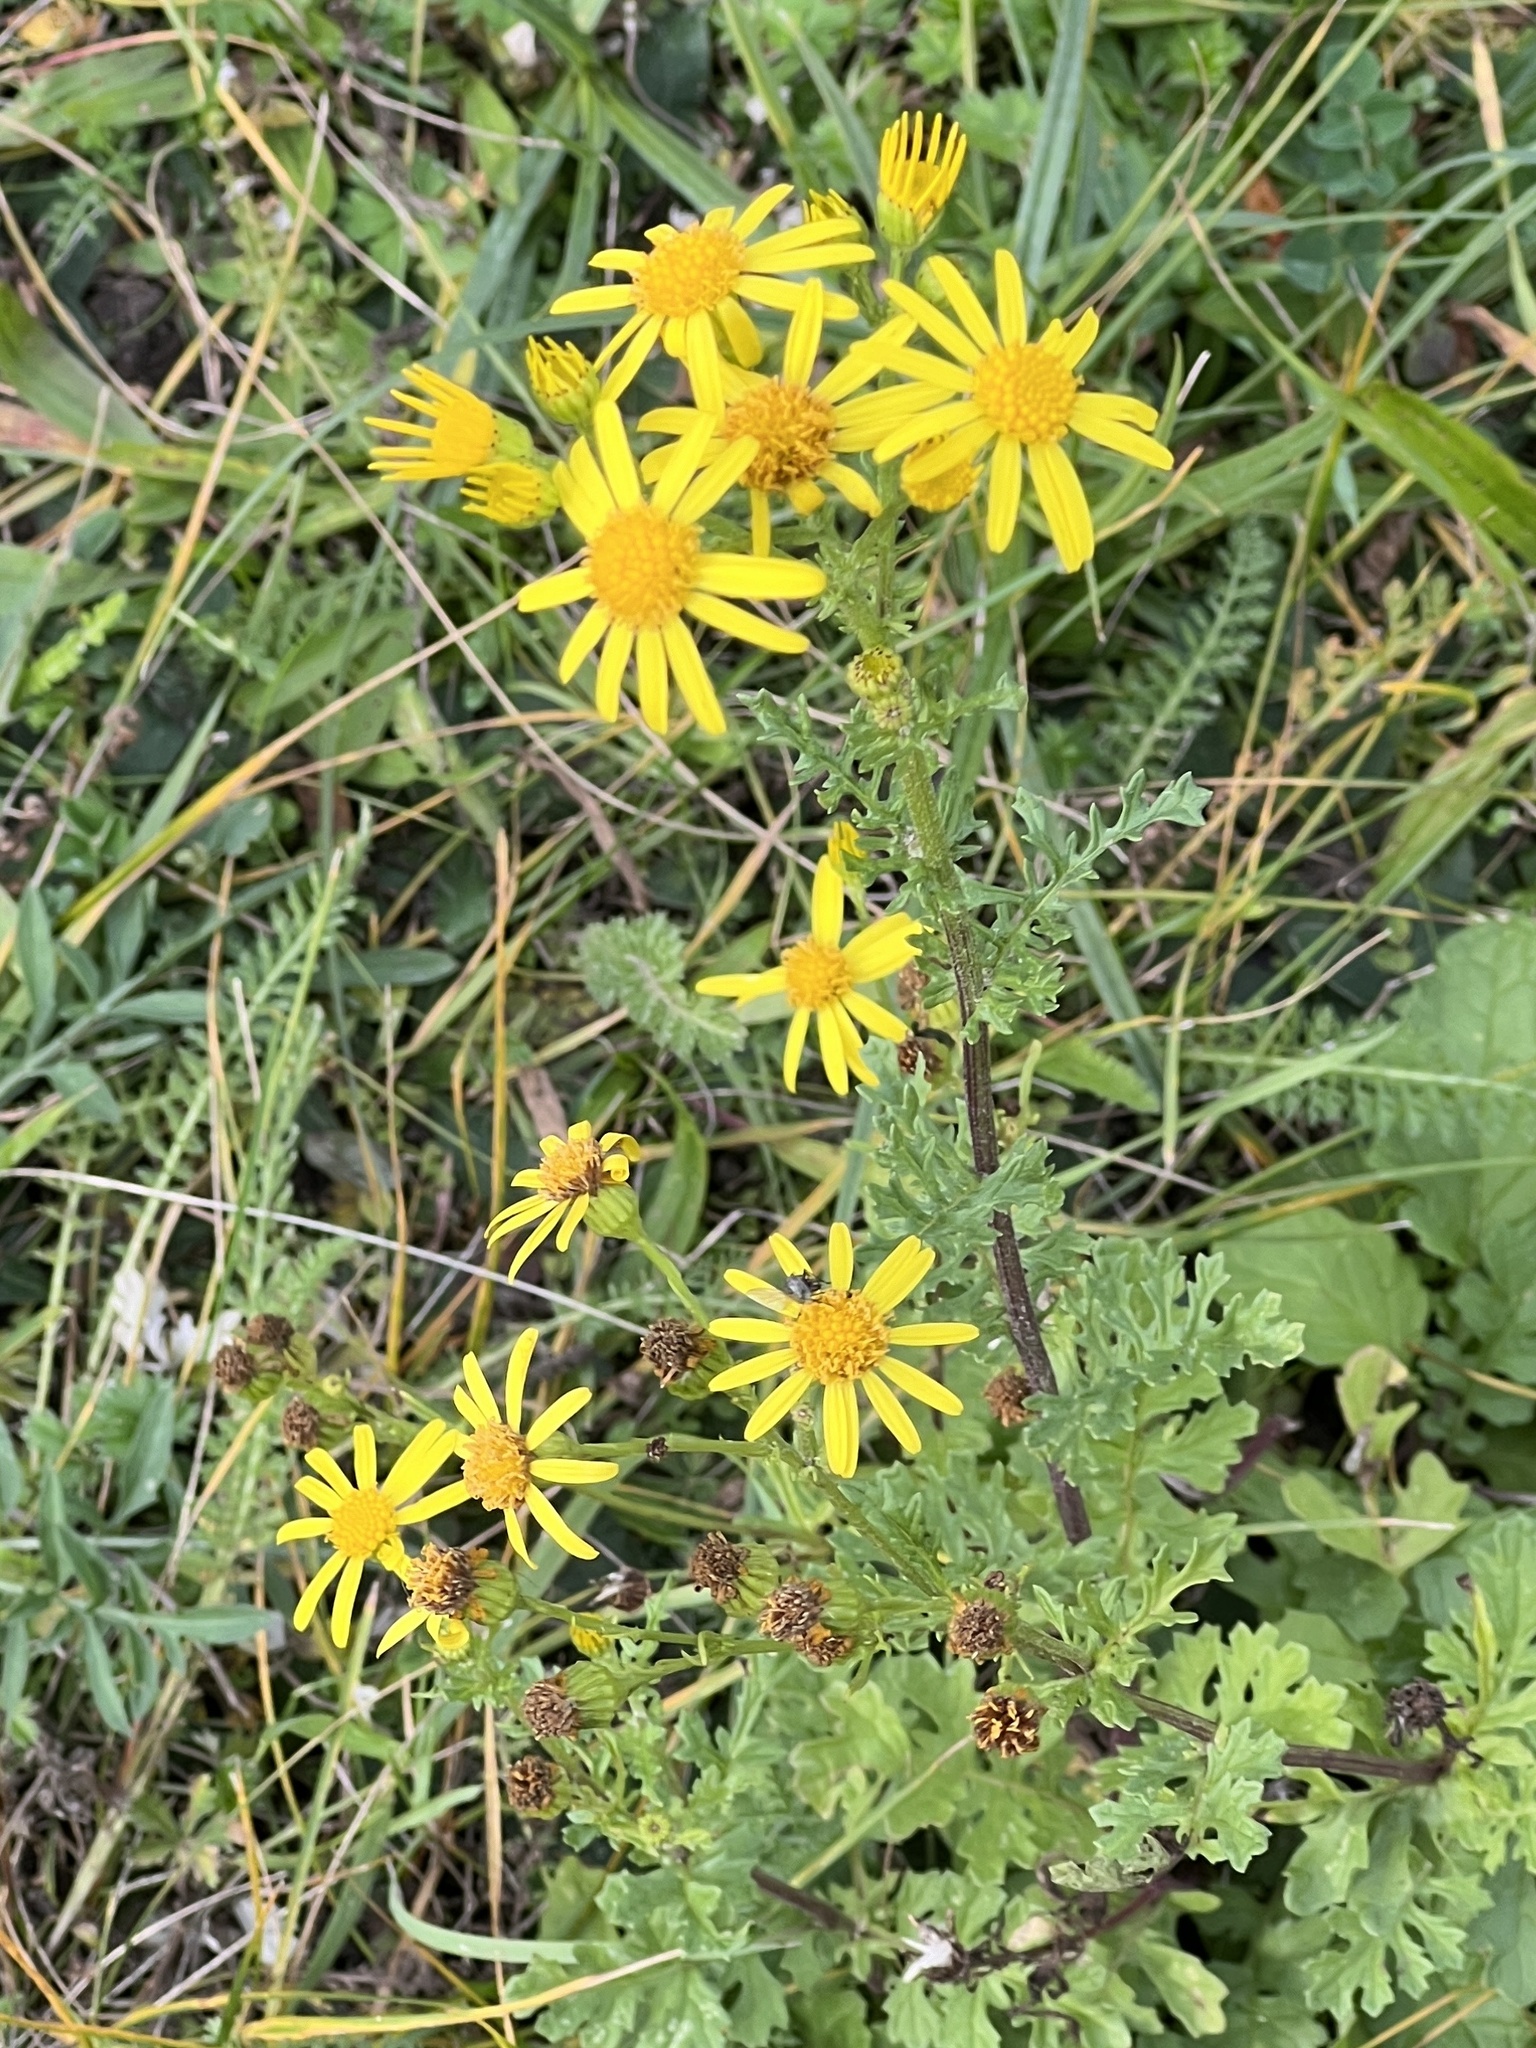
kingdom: Plantae
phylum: Tracheophyta
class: Magnoliopsida
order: Asterales
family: Asteraceae
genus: Jacobaea
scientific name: Jacobaea vulgaris
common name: Stinking willie
